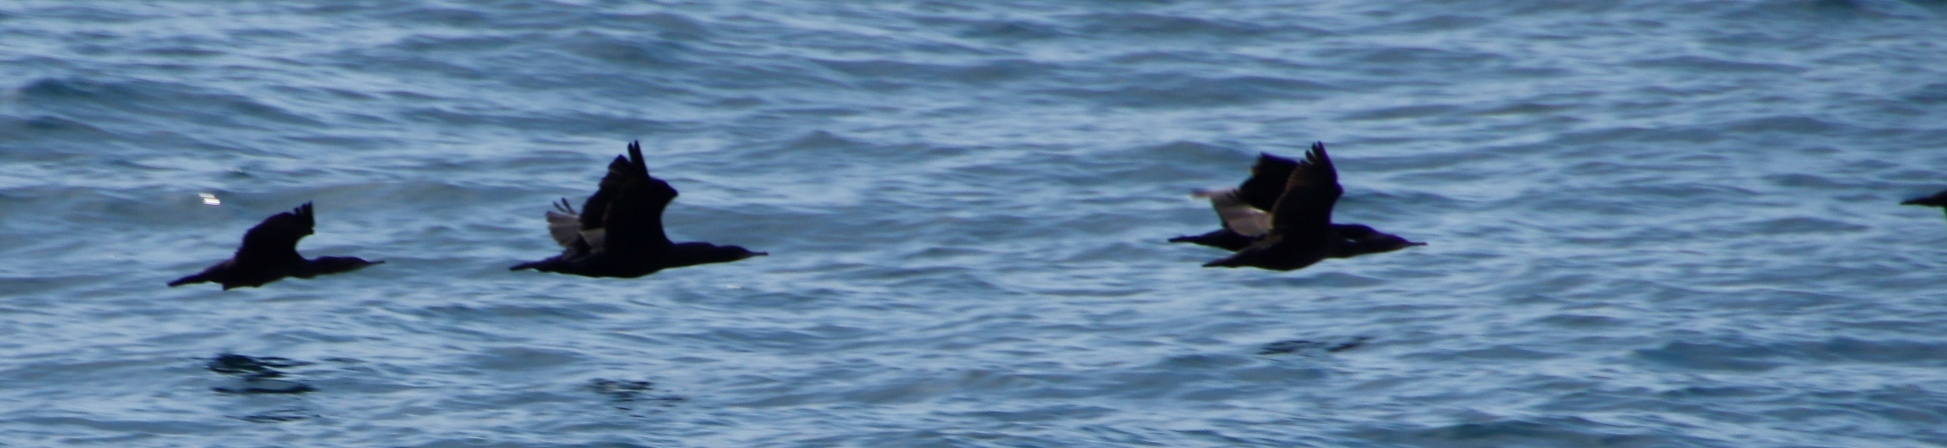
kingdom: Animalia
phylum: Chordata
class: Aves
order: Suliformes
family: Phalacrocoracidae
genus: Phalacrocorax
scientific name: Phalacrocorax capensis
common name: Cape cormorant
